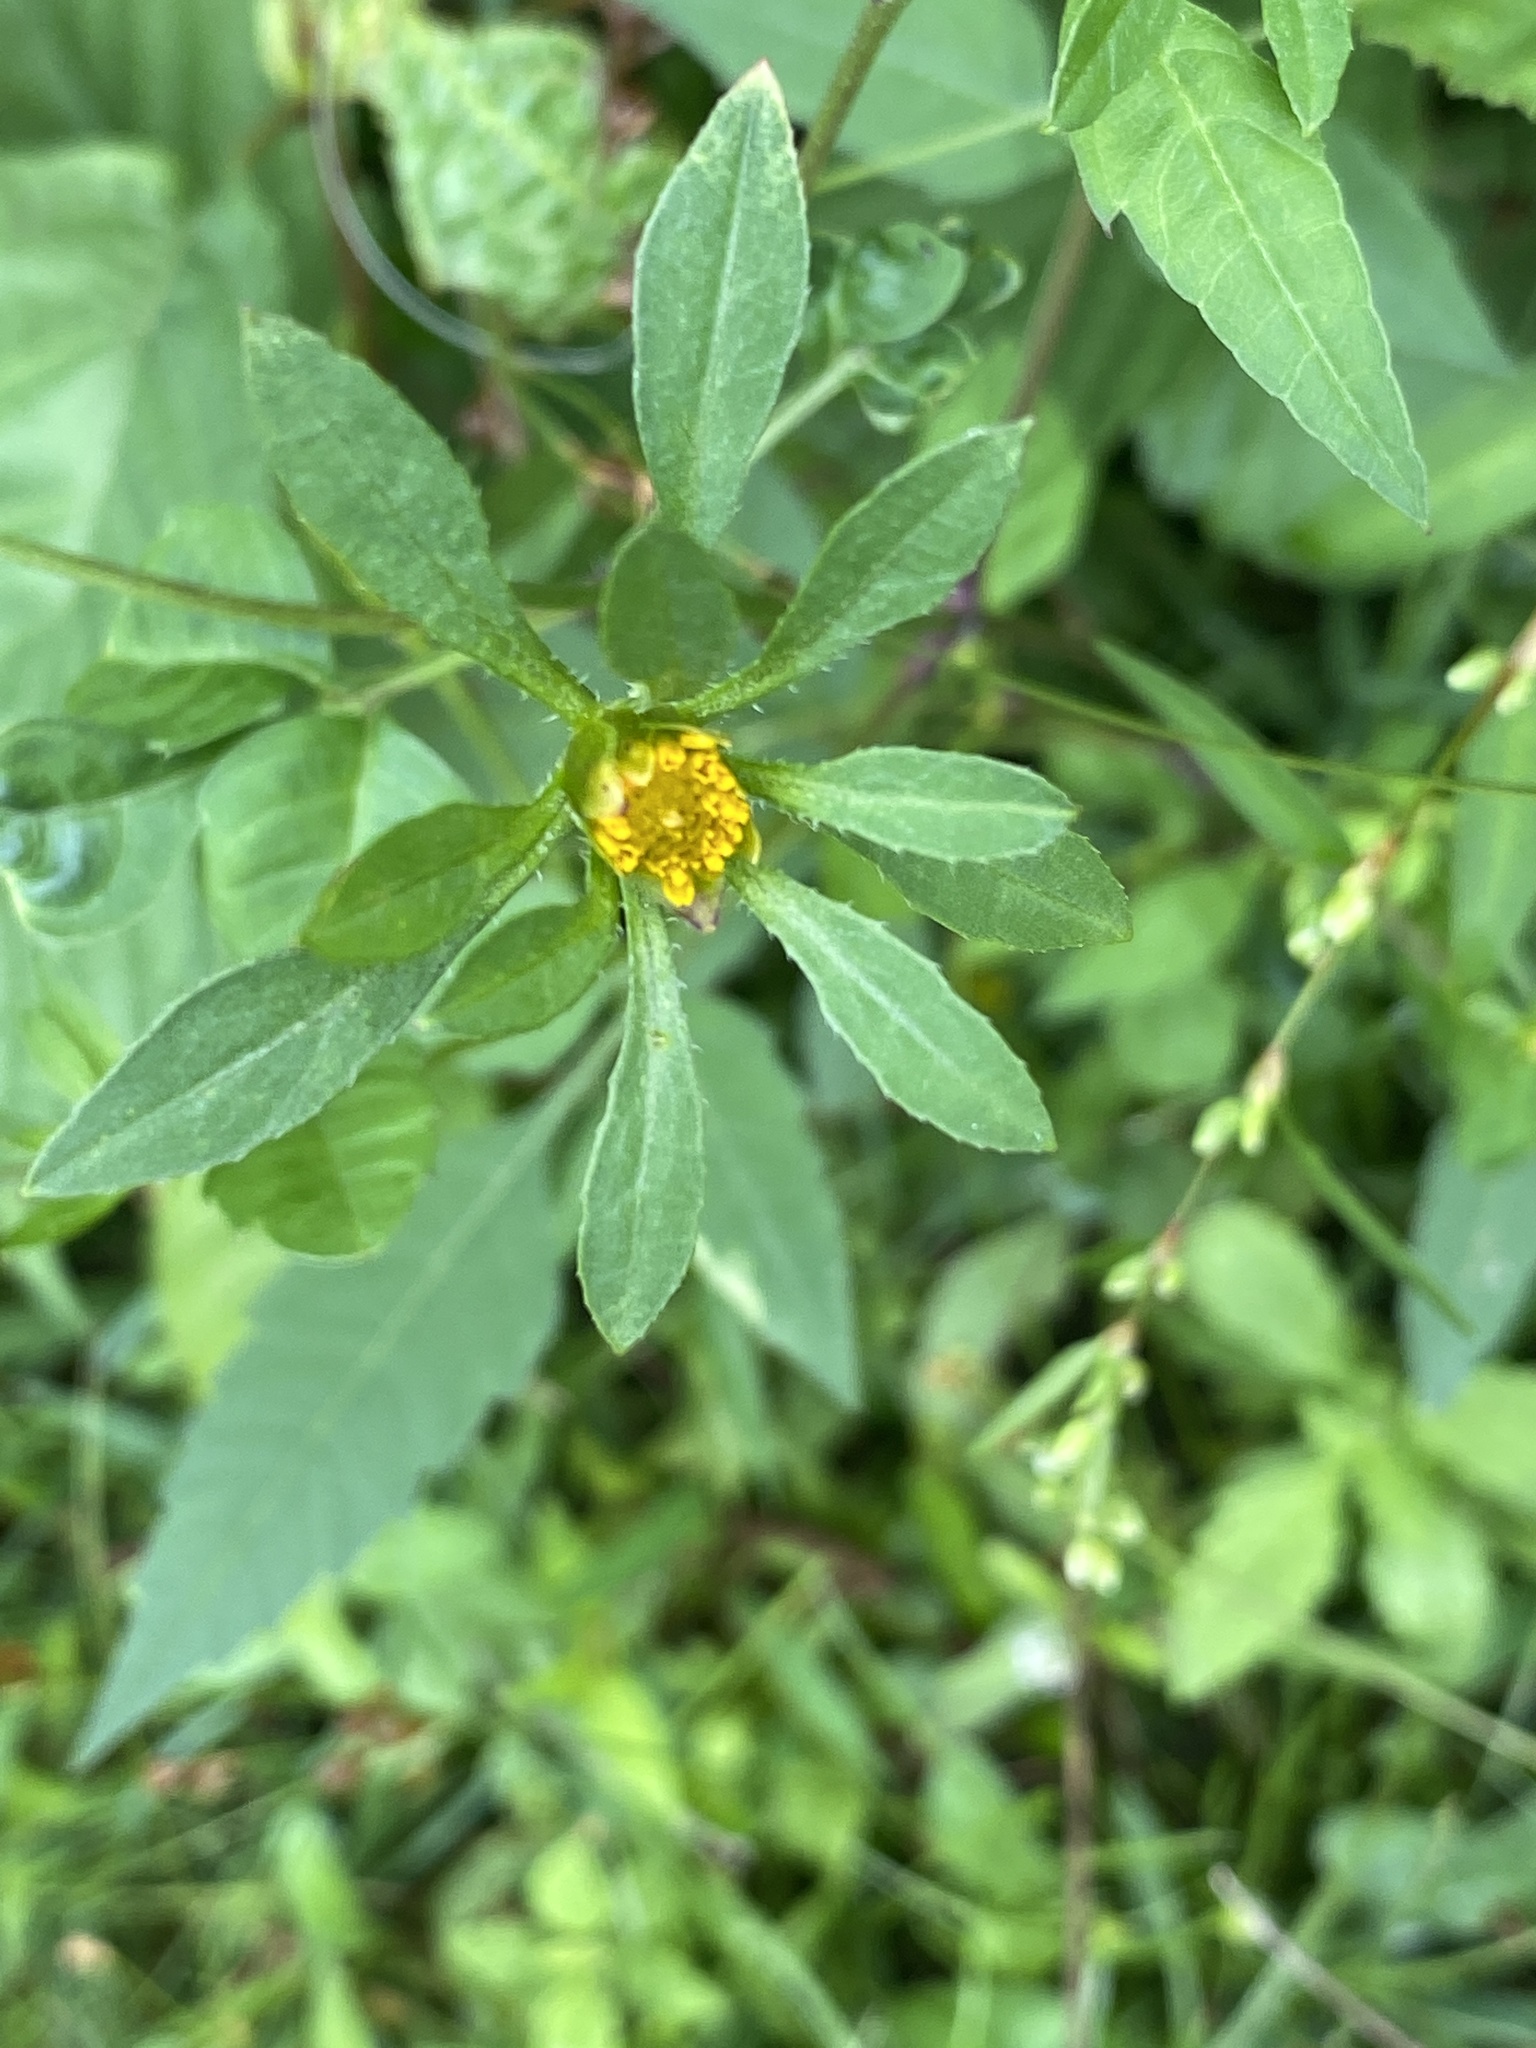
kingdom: Plantae
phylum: Tracheophyta
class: Magnoliopsida
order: Asterales
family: Asteraceae
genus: Bidens
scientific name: Bidens connata
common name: London bur-marigold
